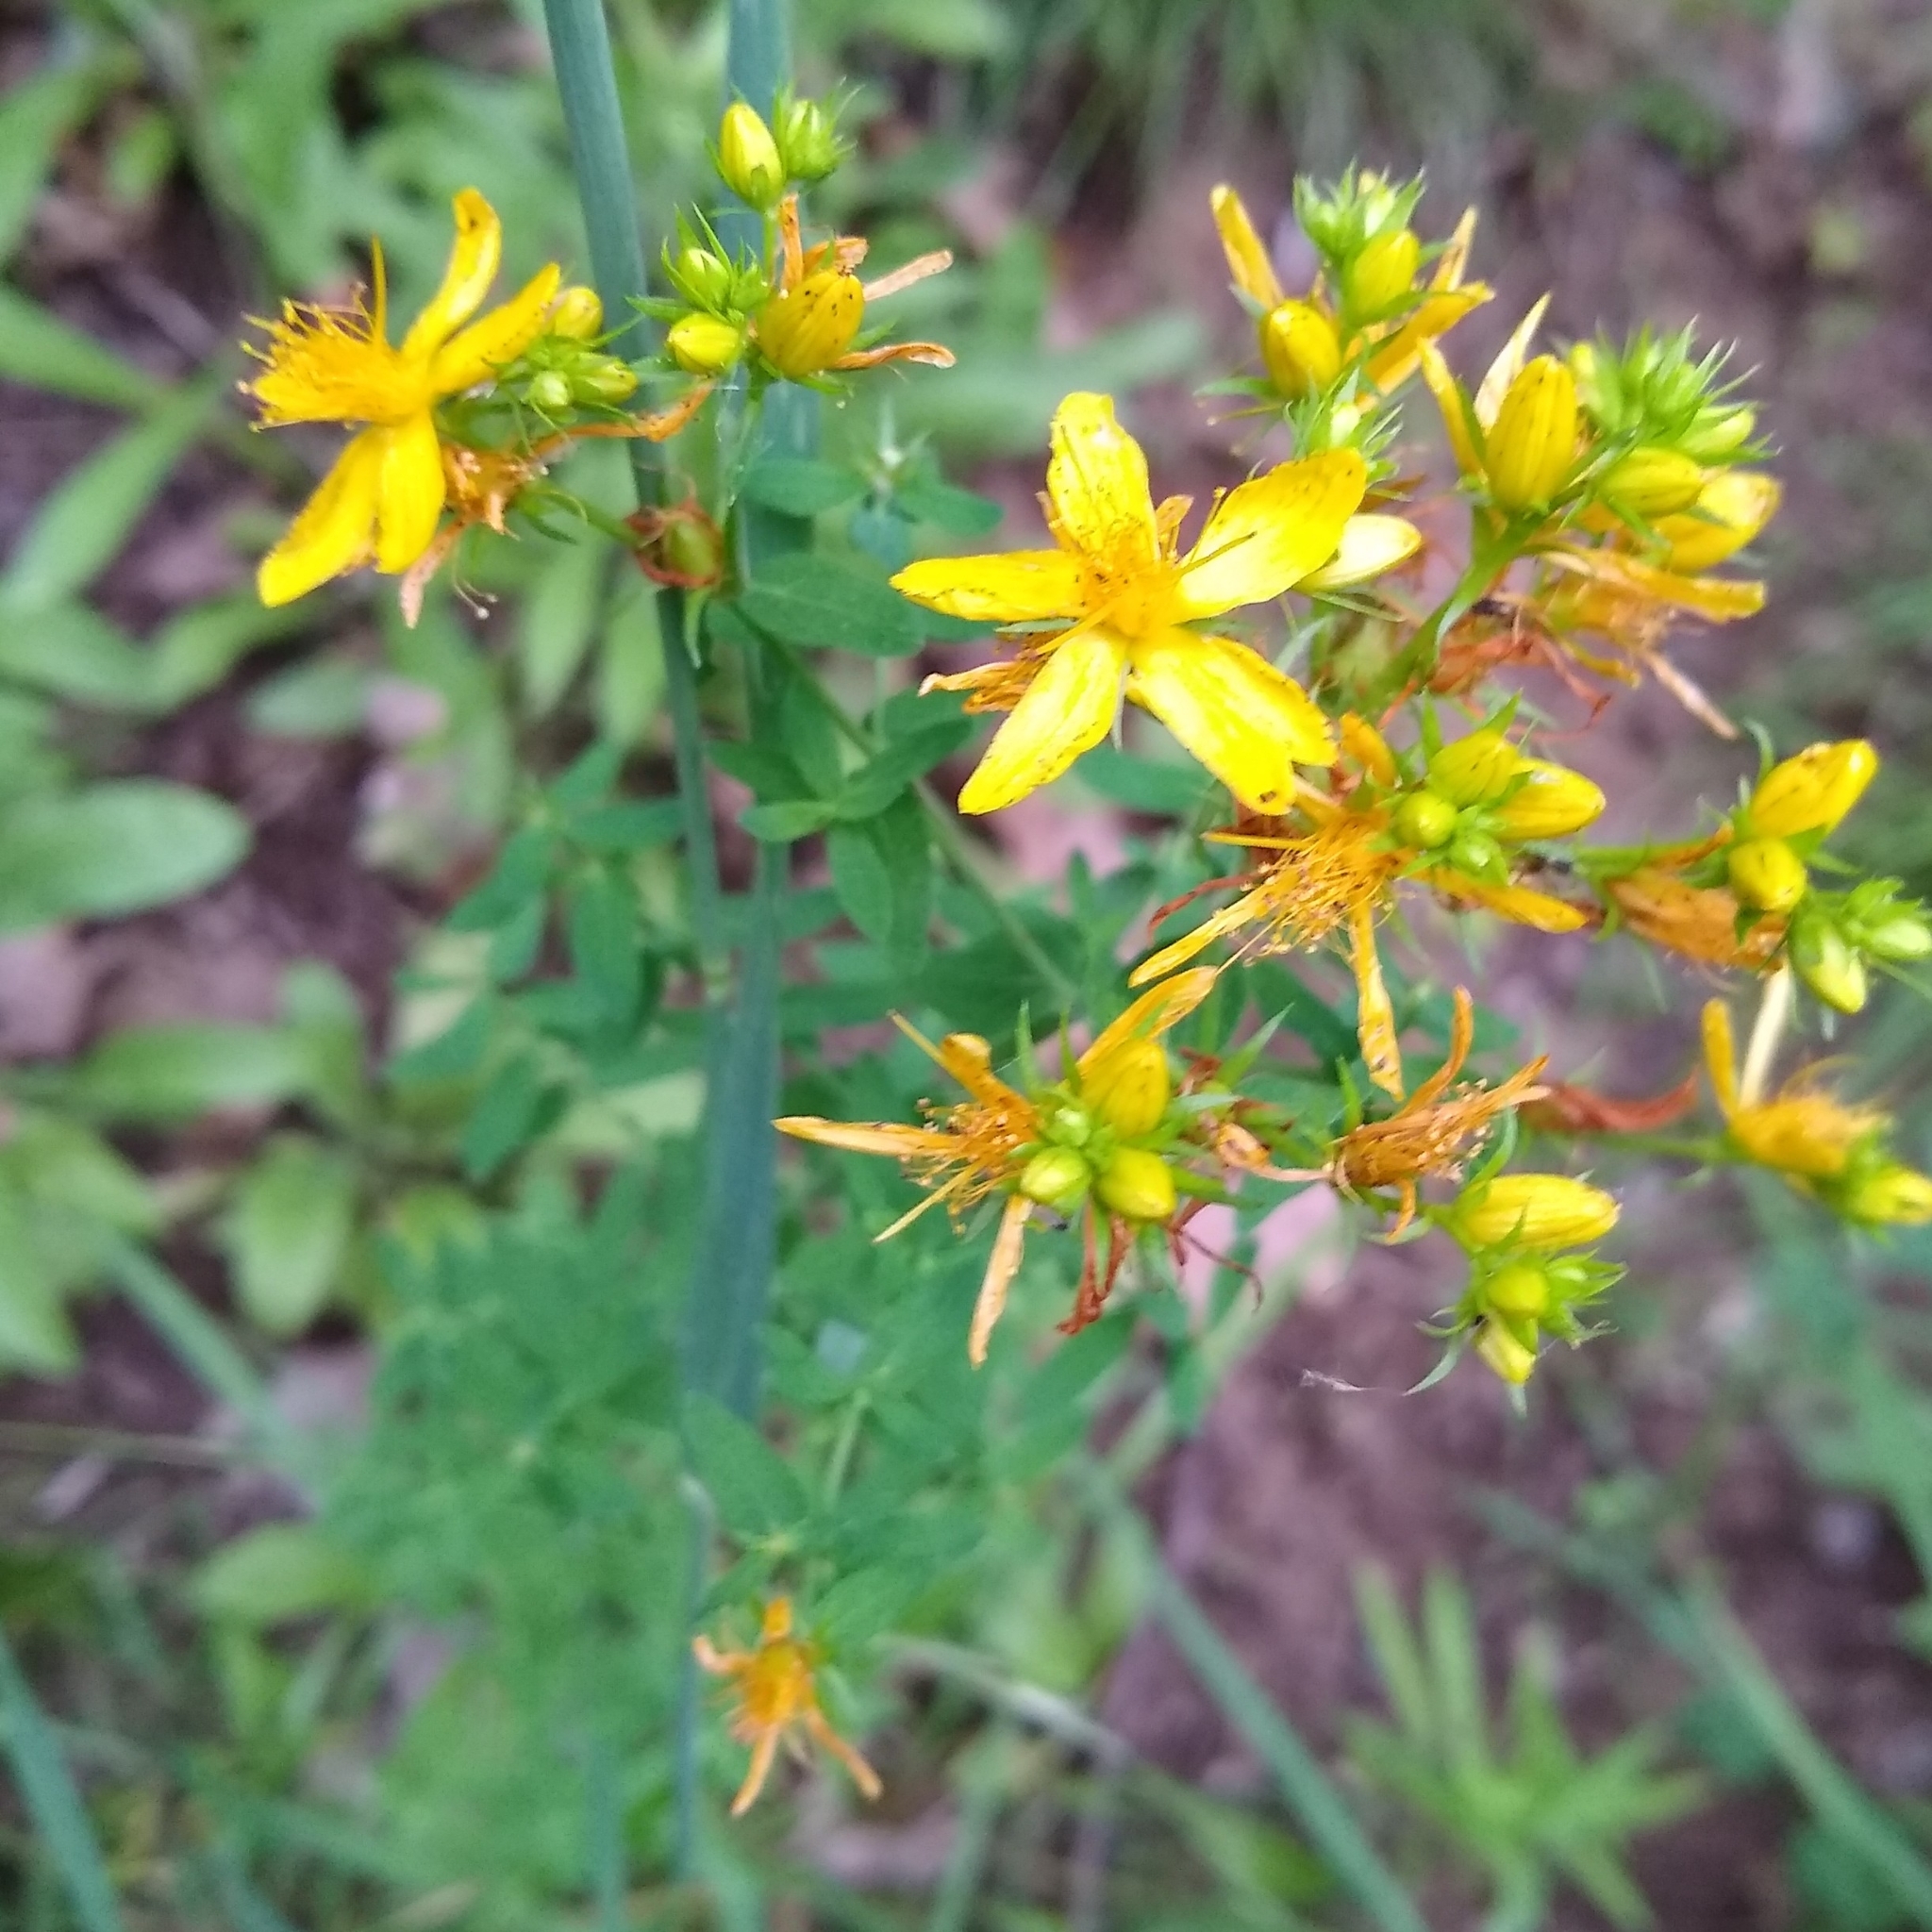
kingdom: Plantae
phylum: Tracheophyta
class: Magnoliopsida
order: Malpighiales
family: Hypericaceae
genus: Hypericum
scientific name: Hypericum perforatum
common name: Common st. johnswort
